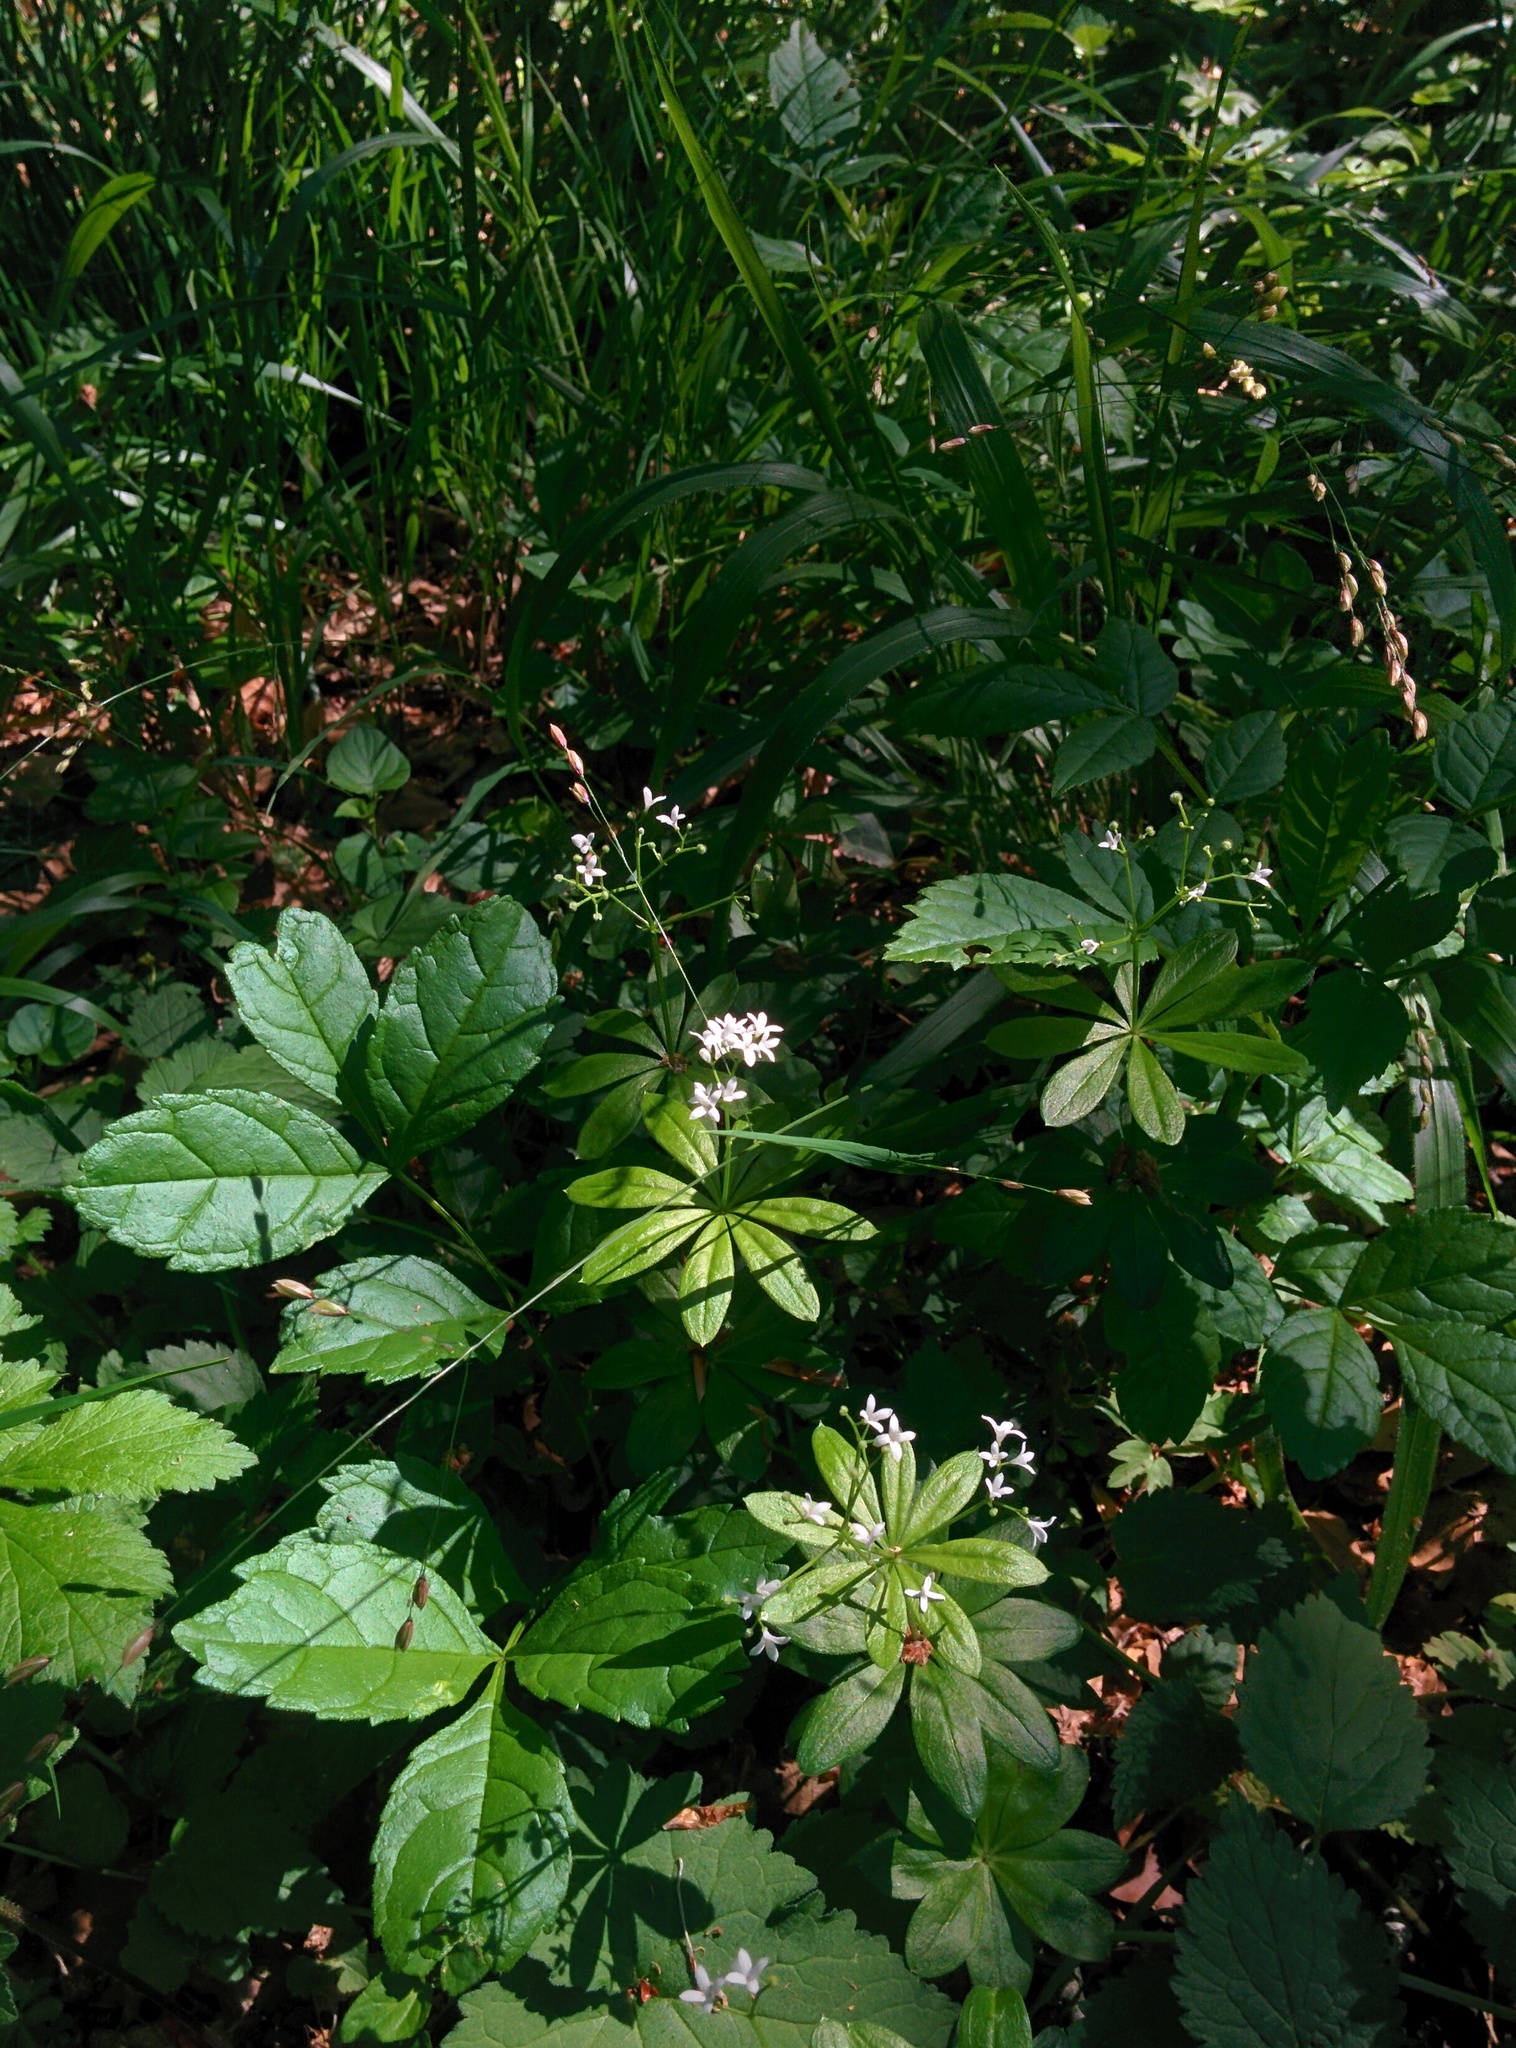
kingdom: Plantae
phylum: Tracheophyta
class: Magnoliopsida
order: Gentianales
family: Rubiaceae
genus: Galium
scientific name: Galium odoratum
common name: Sweet woodruff
